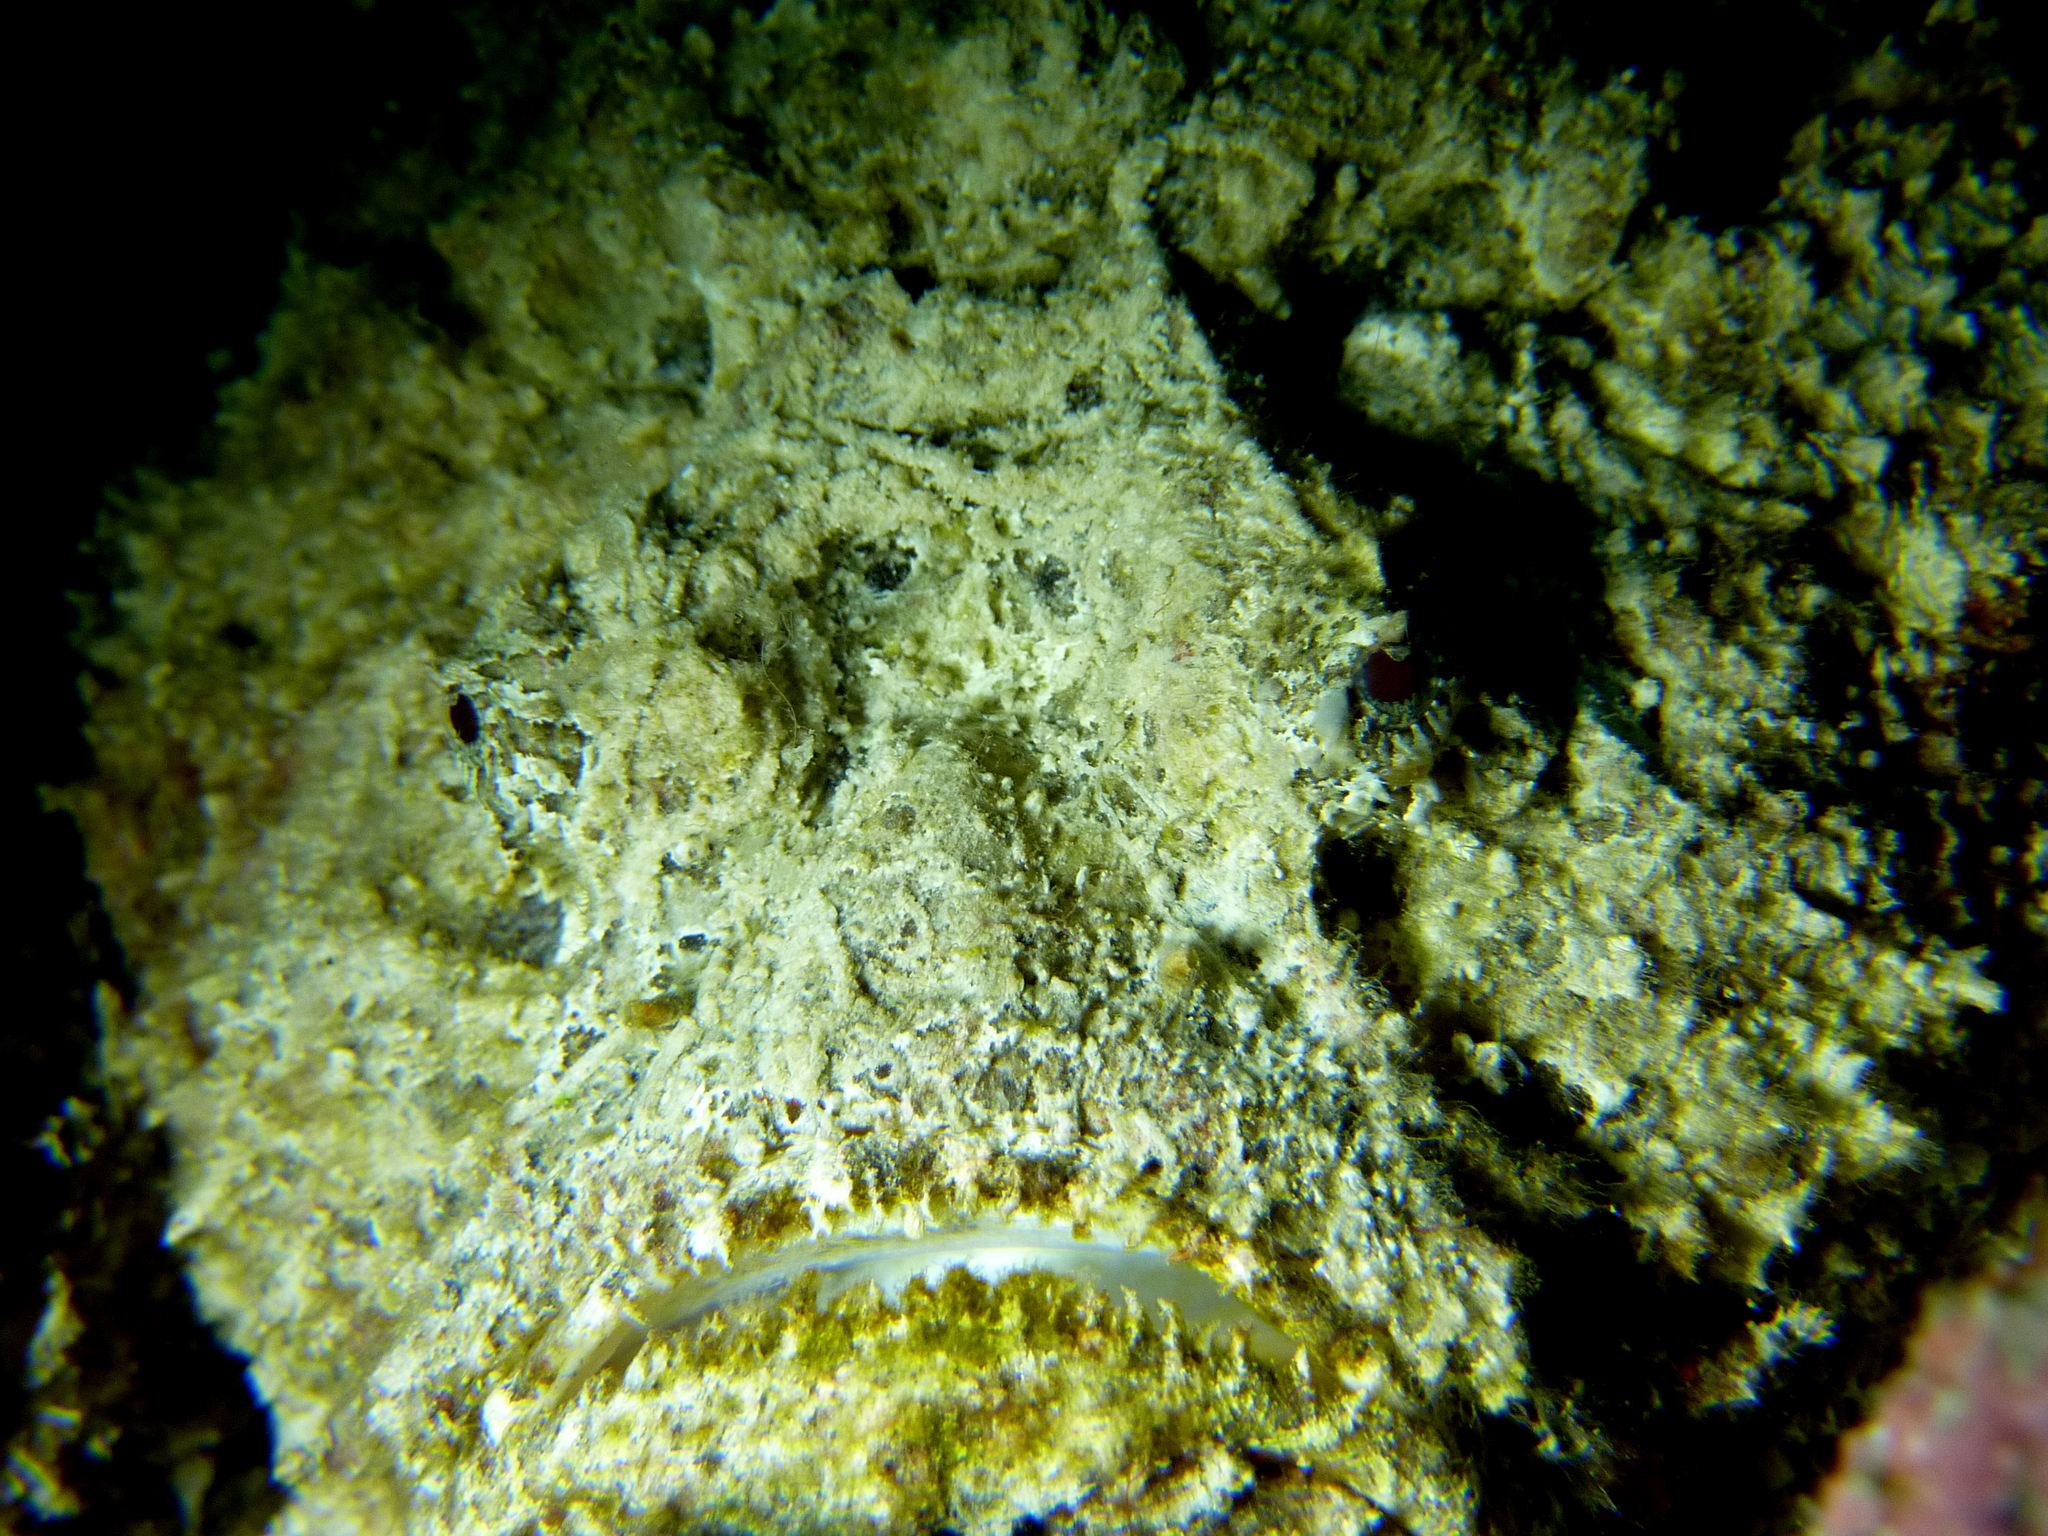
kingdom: Animalia
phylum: Chordata
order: Scorpaeniformes
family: Synanceiidae
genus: Synanceia
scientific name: Synanceia verrucosa
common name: Stonefish
